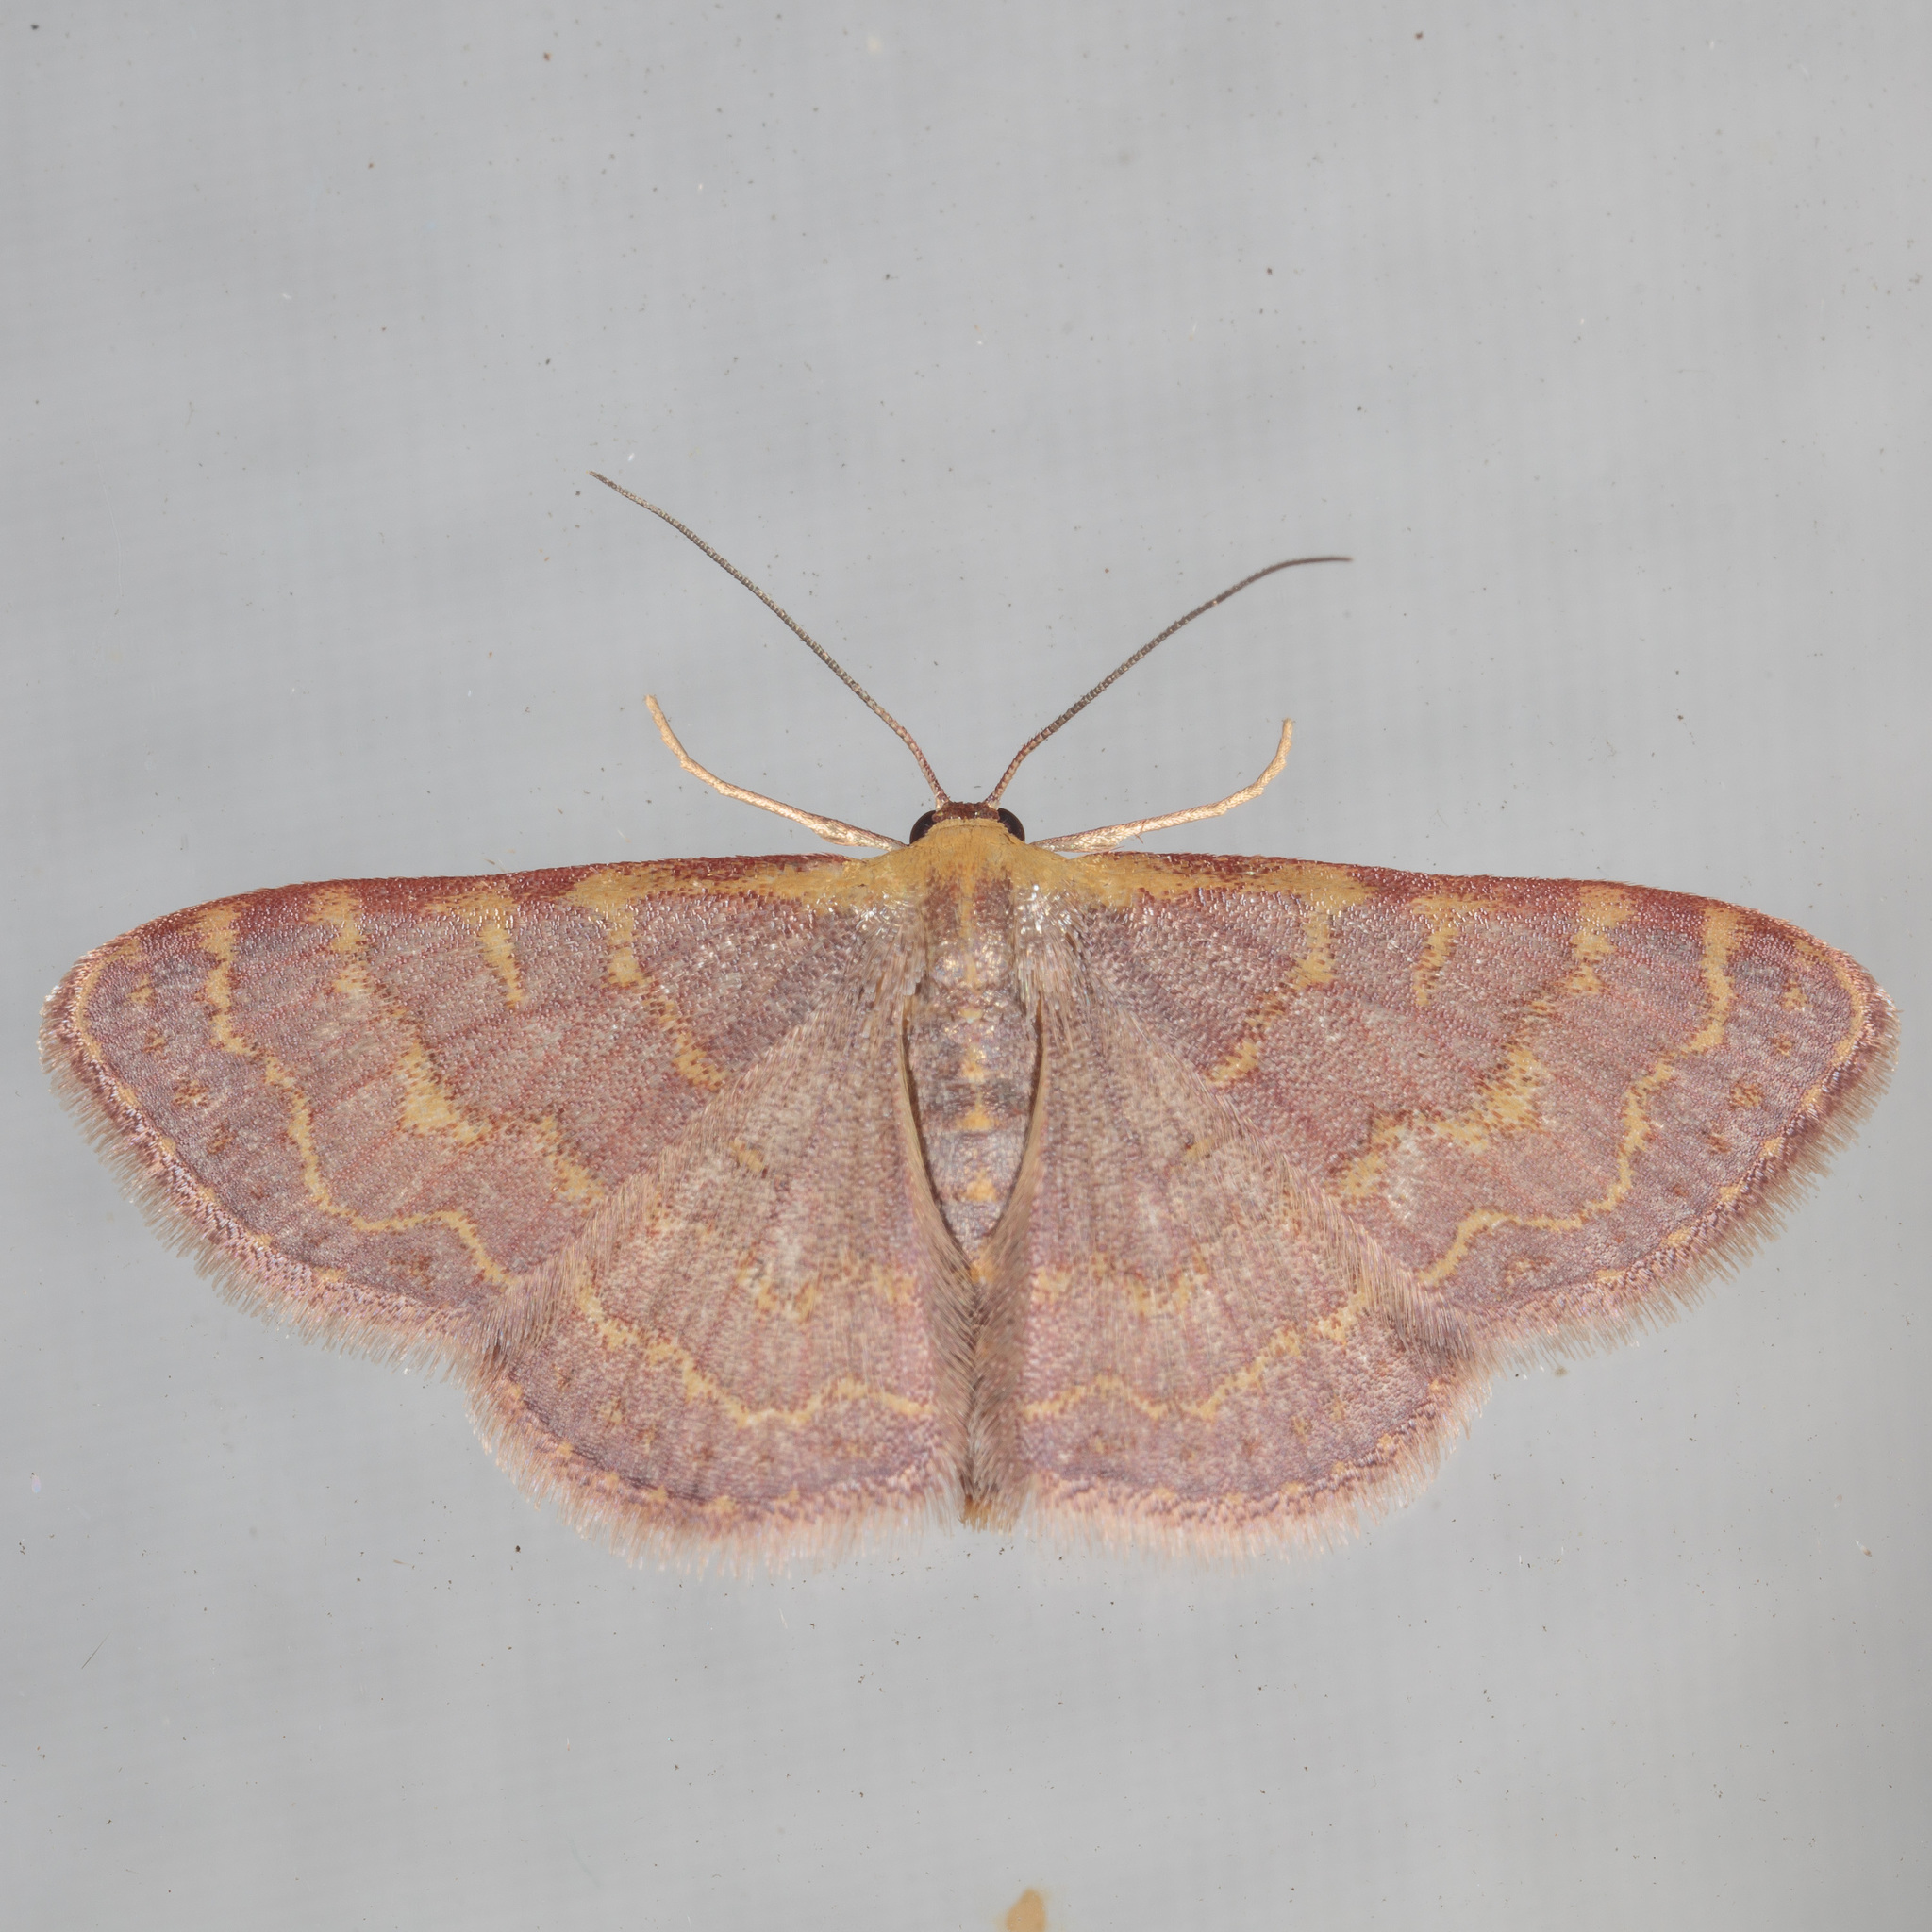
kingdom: Animalia
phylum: Arthropoda
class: Insecta
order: Lepidoptera
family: Geometridae
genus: Leptostales
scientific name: Leptostales pannaria
